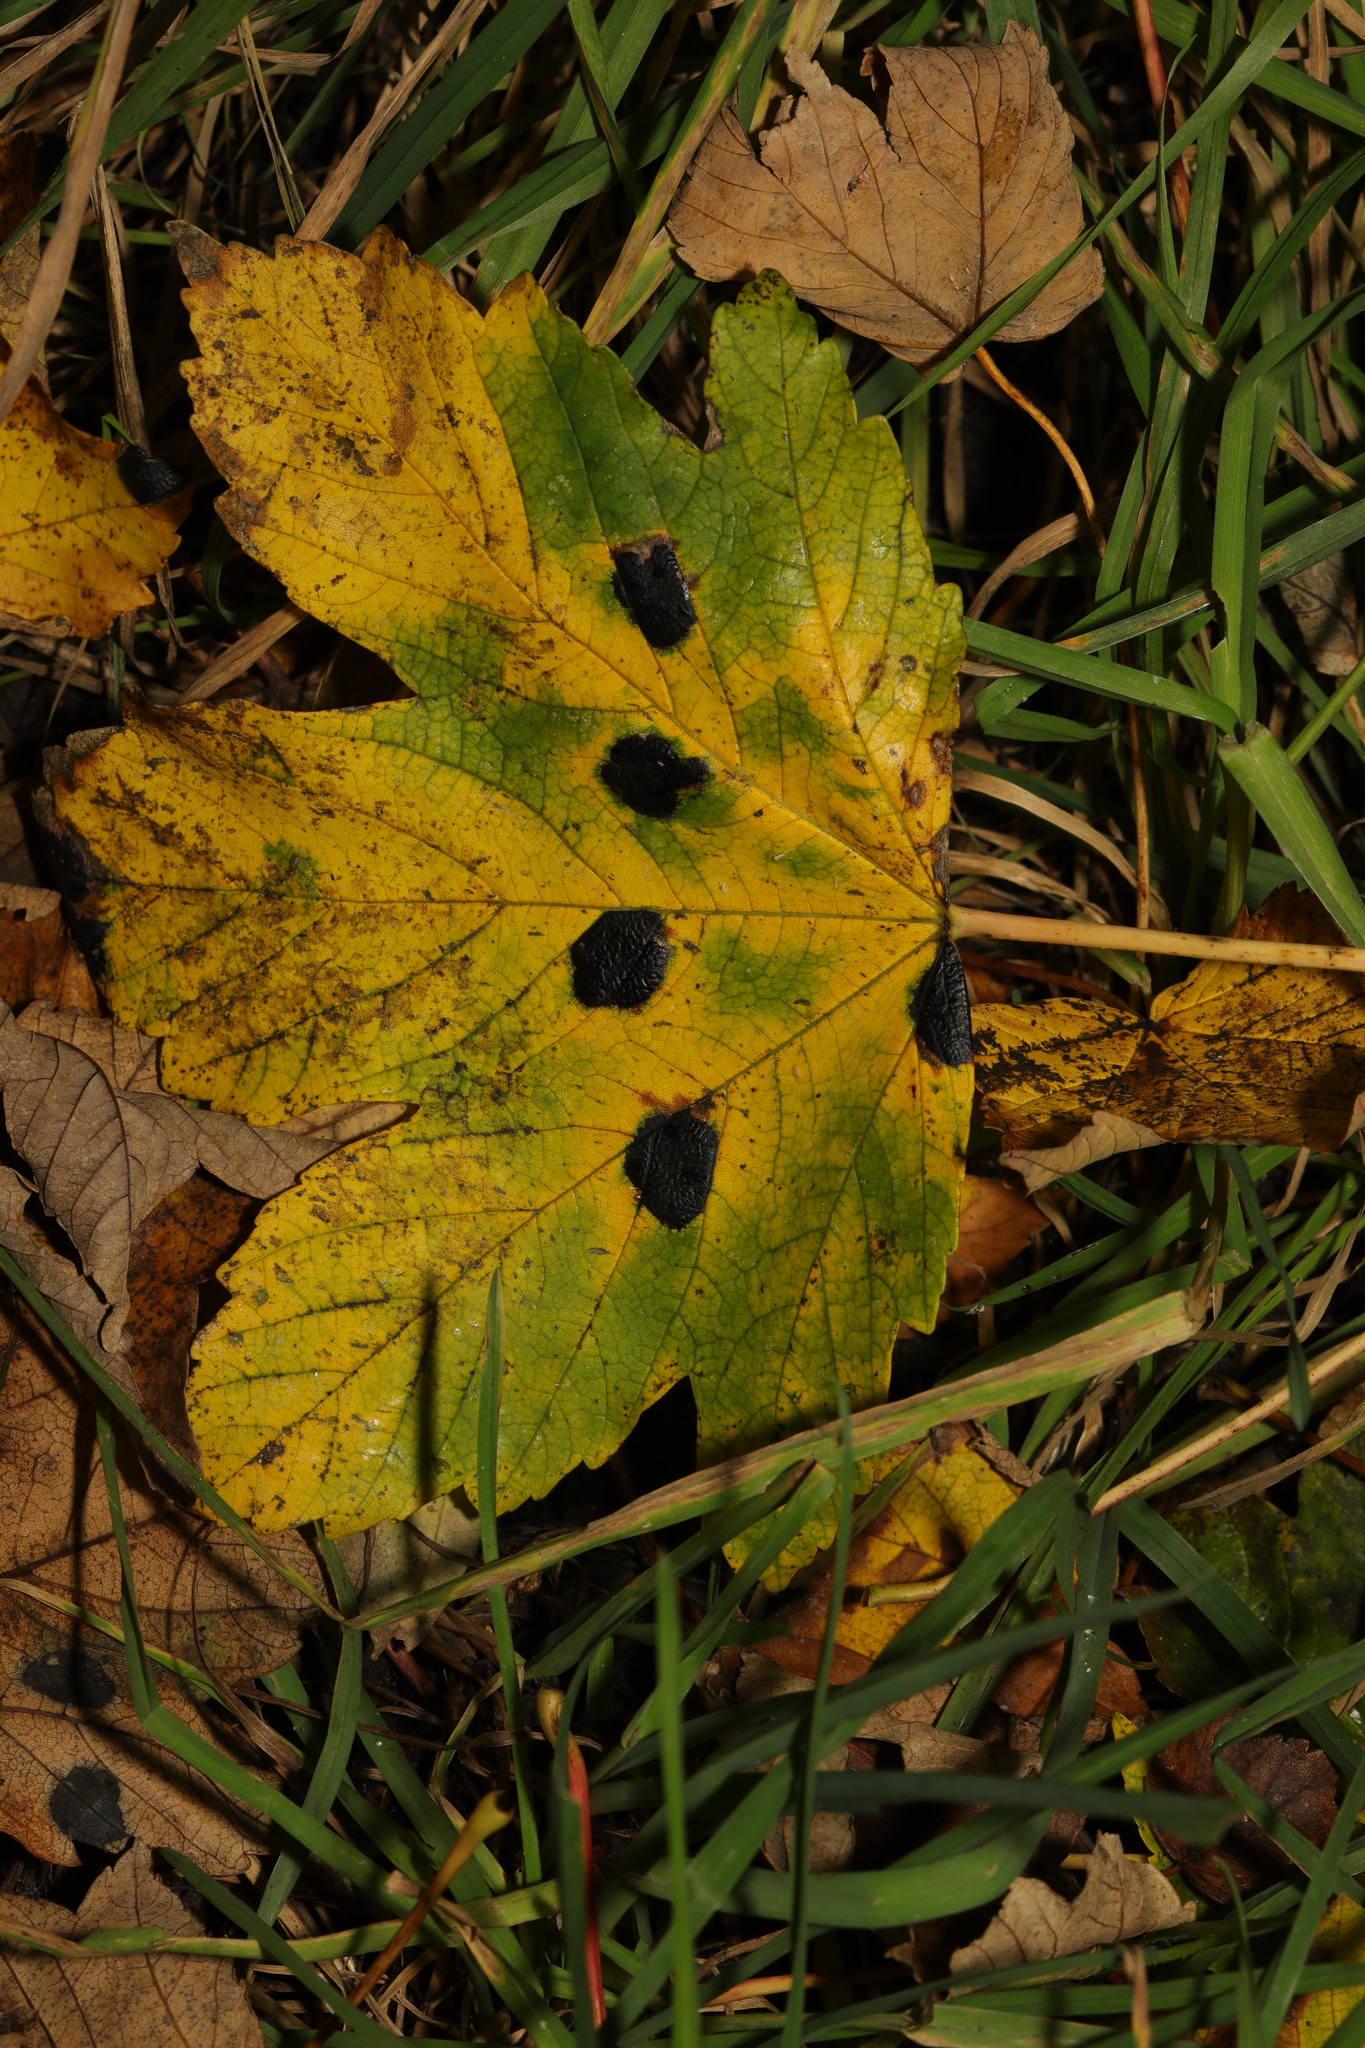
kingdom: Plantae
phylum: Tracheophyta
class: Magnoliopsida
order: Sapindales
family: Sapindaceae
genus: Acer
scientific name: Acer pseudoplatanus
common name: Sycamore
